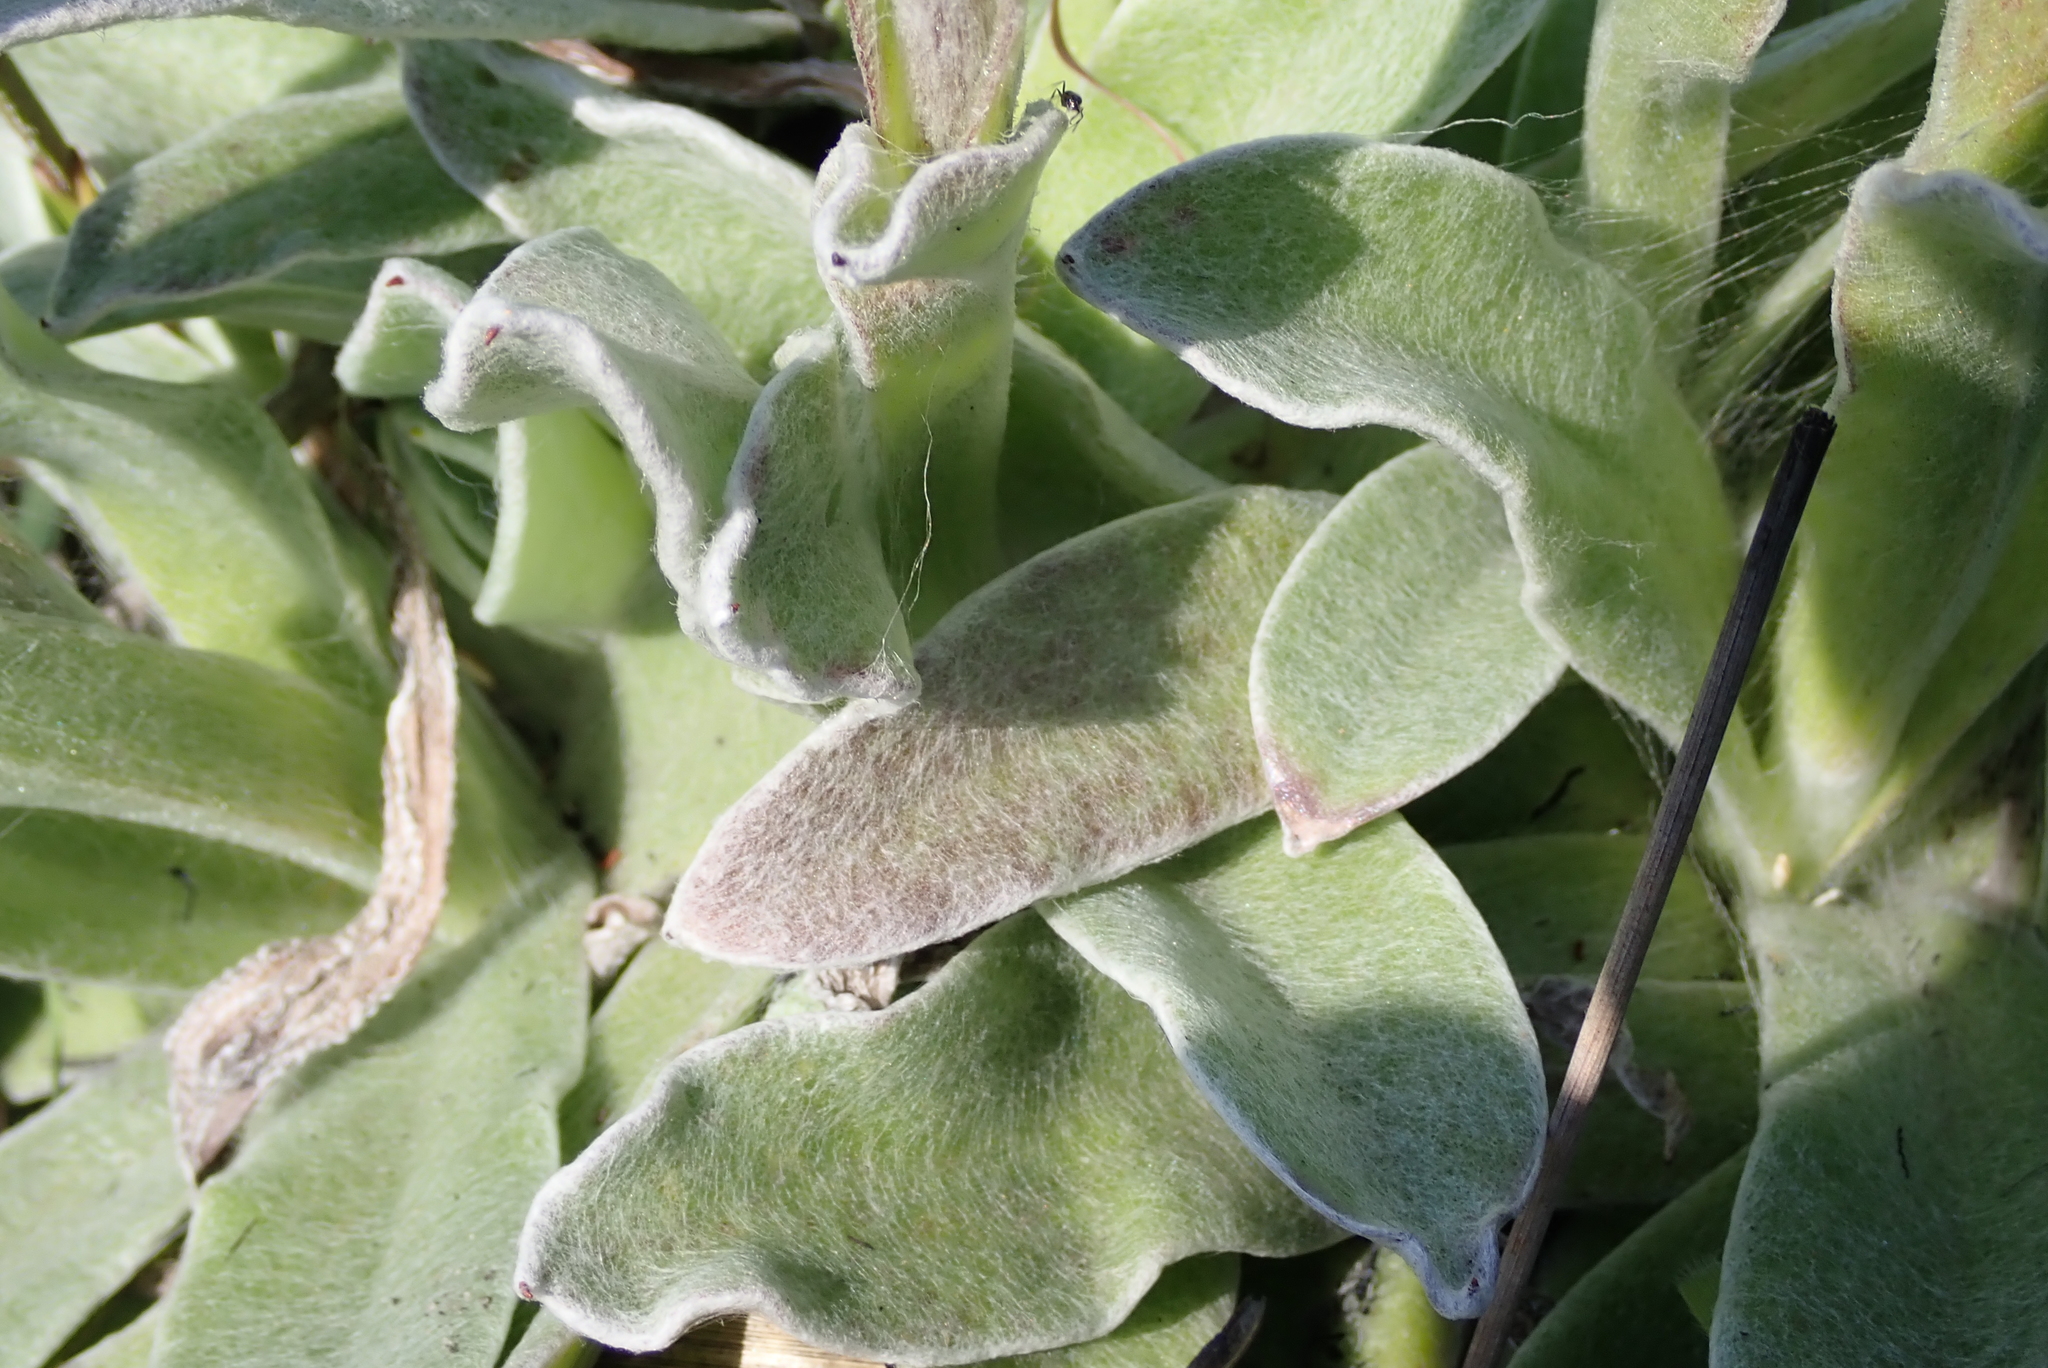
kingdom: Plantae
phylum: Tracheophyta
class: Magnoliopsida
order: Asterales
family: Asteraceae
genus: Helichrysum
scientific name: Helichrysum ecklonis
